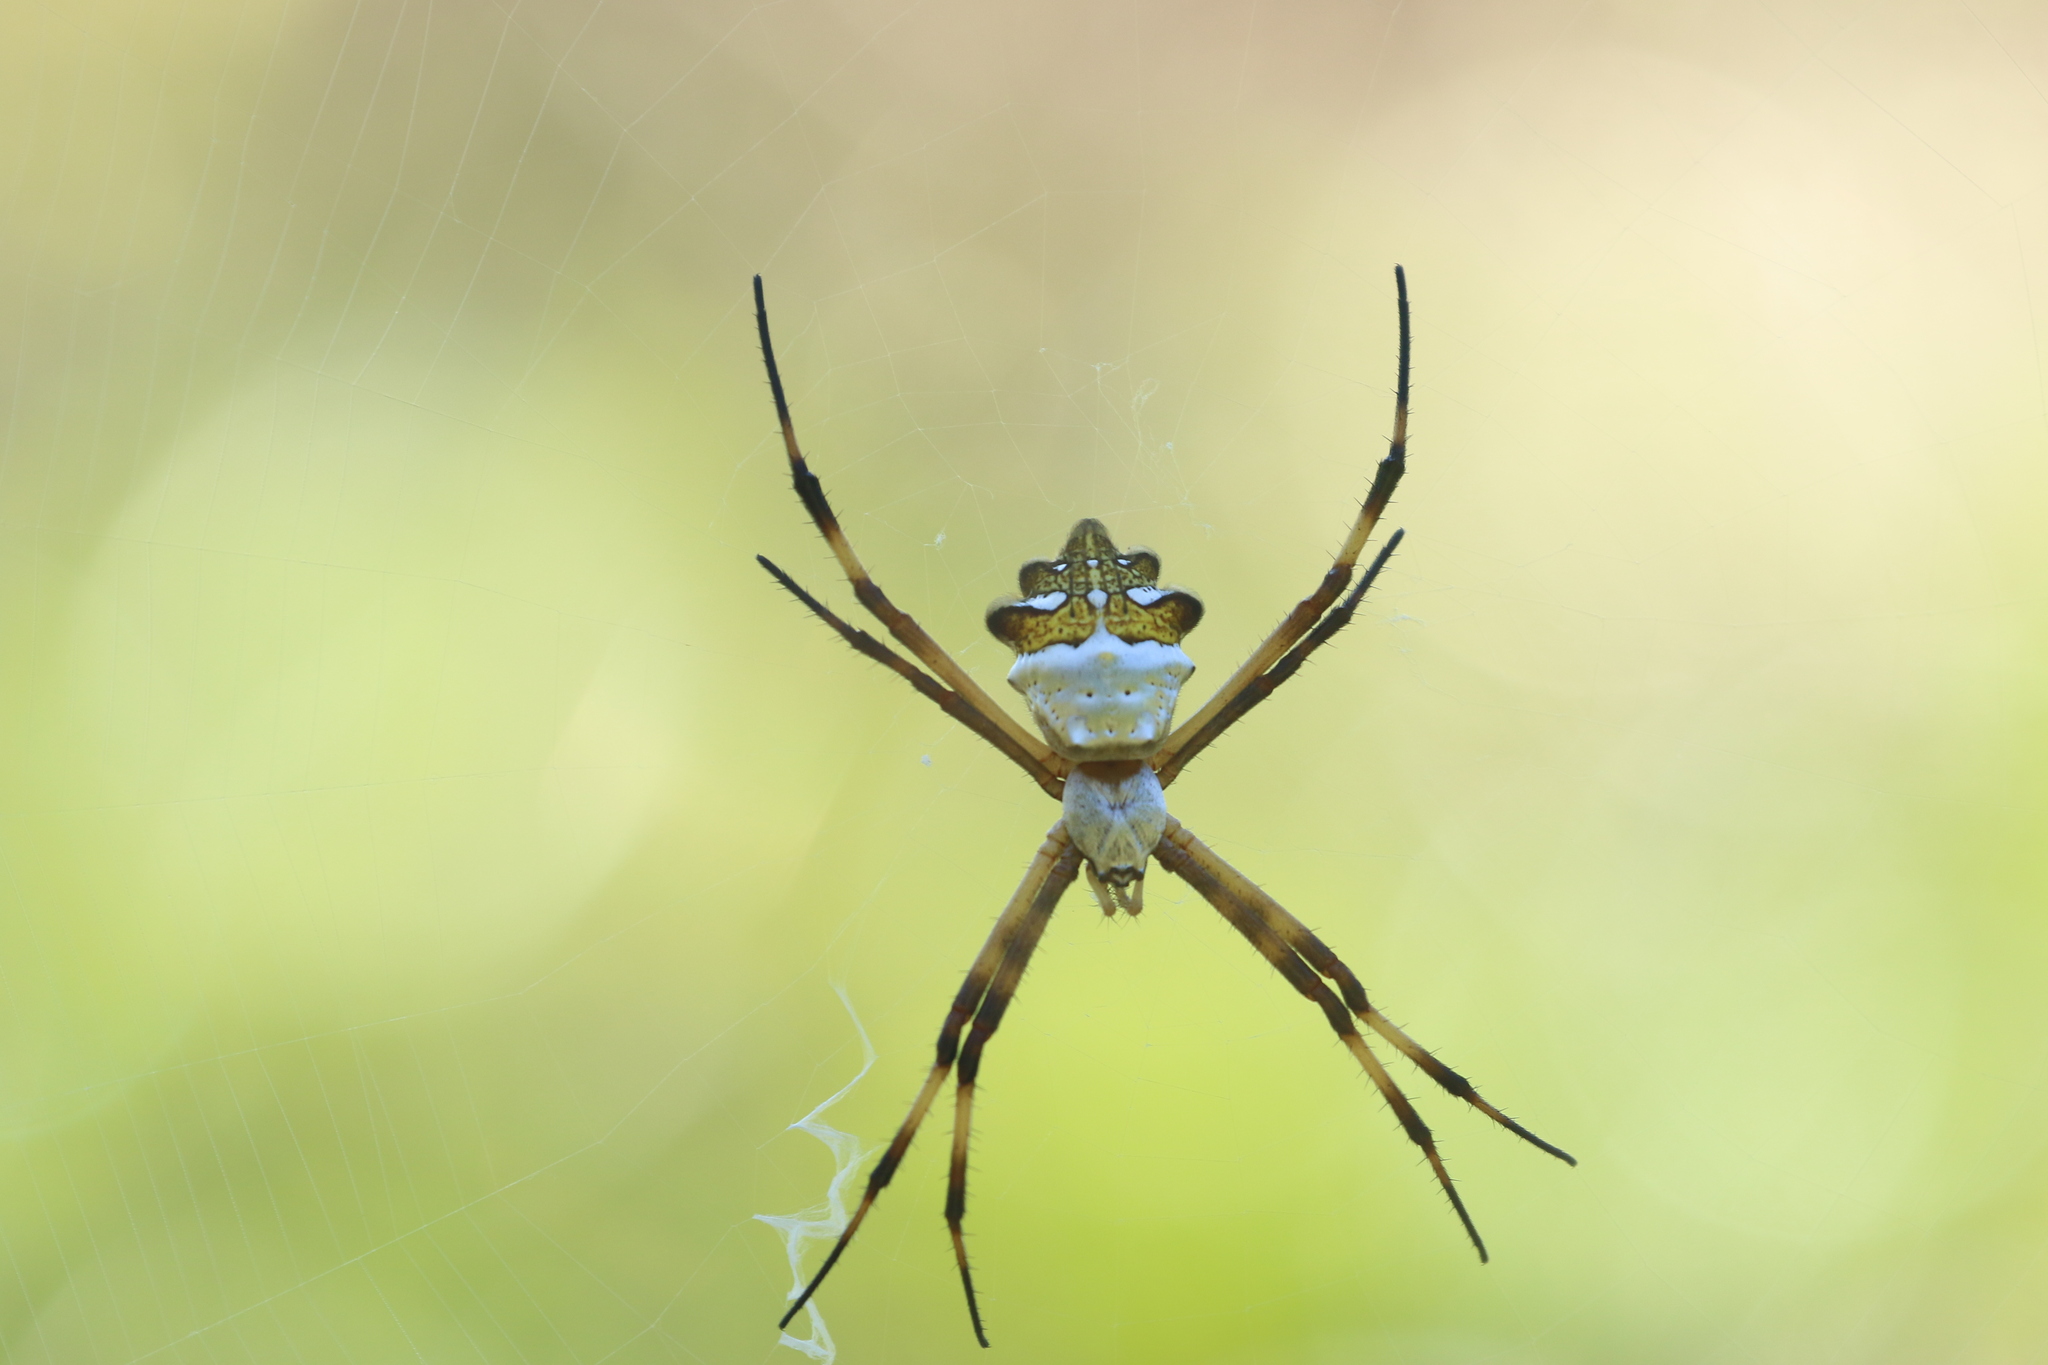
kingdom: Animalia
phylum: Arthropoda
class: Arachnida
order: Araneae
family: Araneidae
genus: Argiope
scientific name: Argiope argentata
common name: Orb weavers
